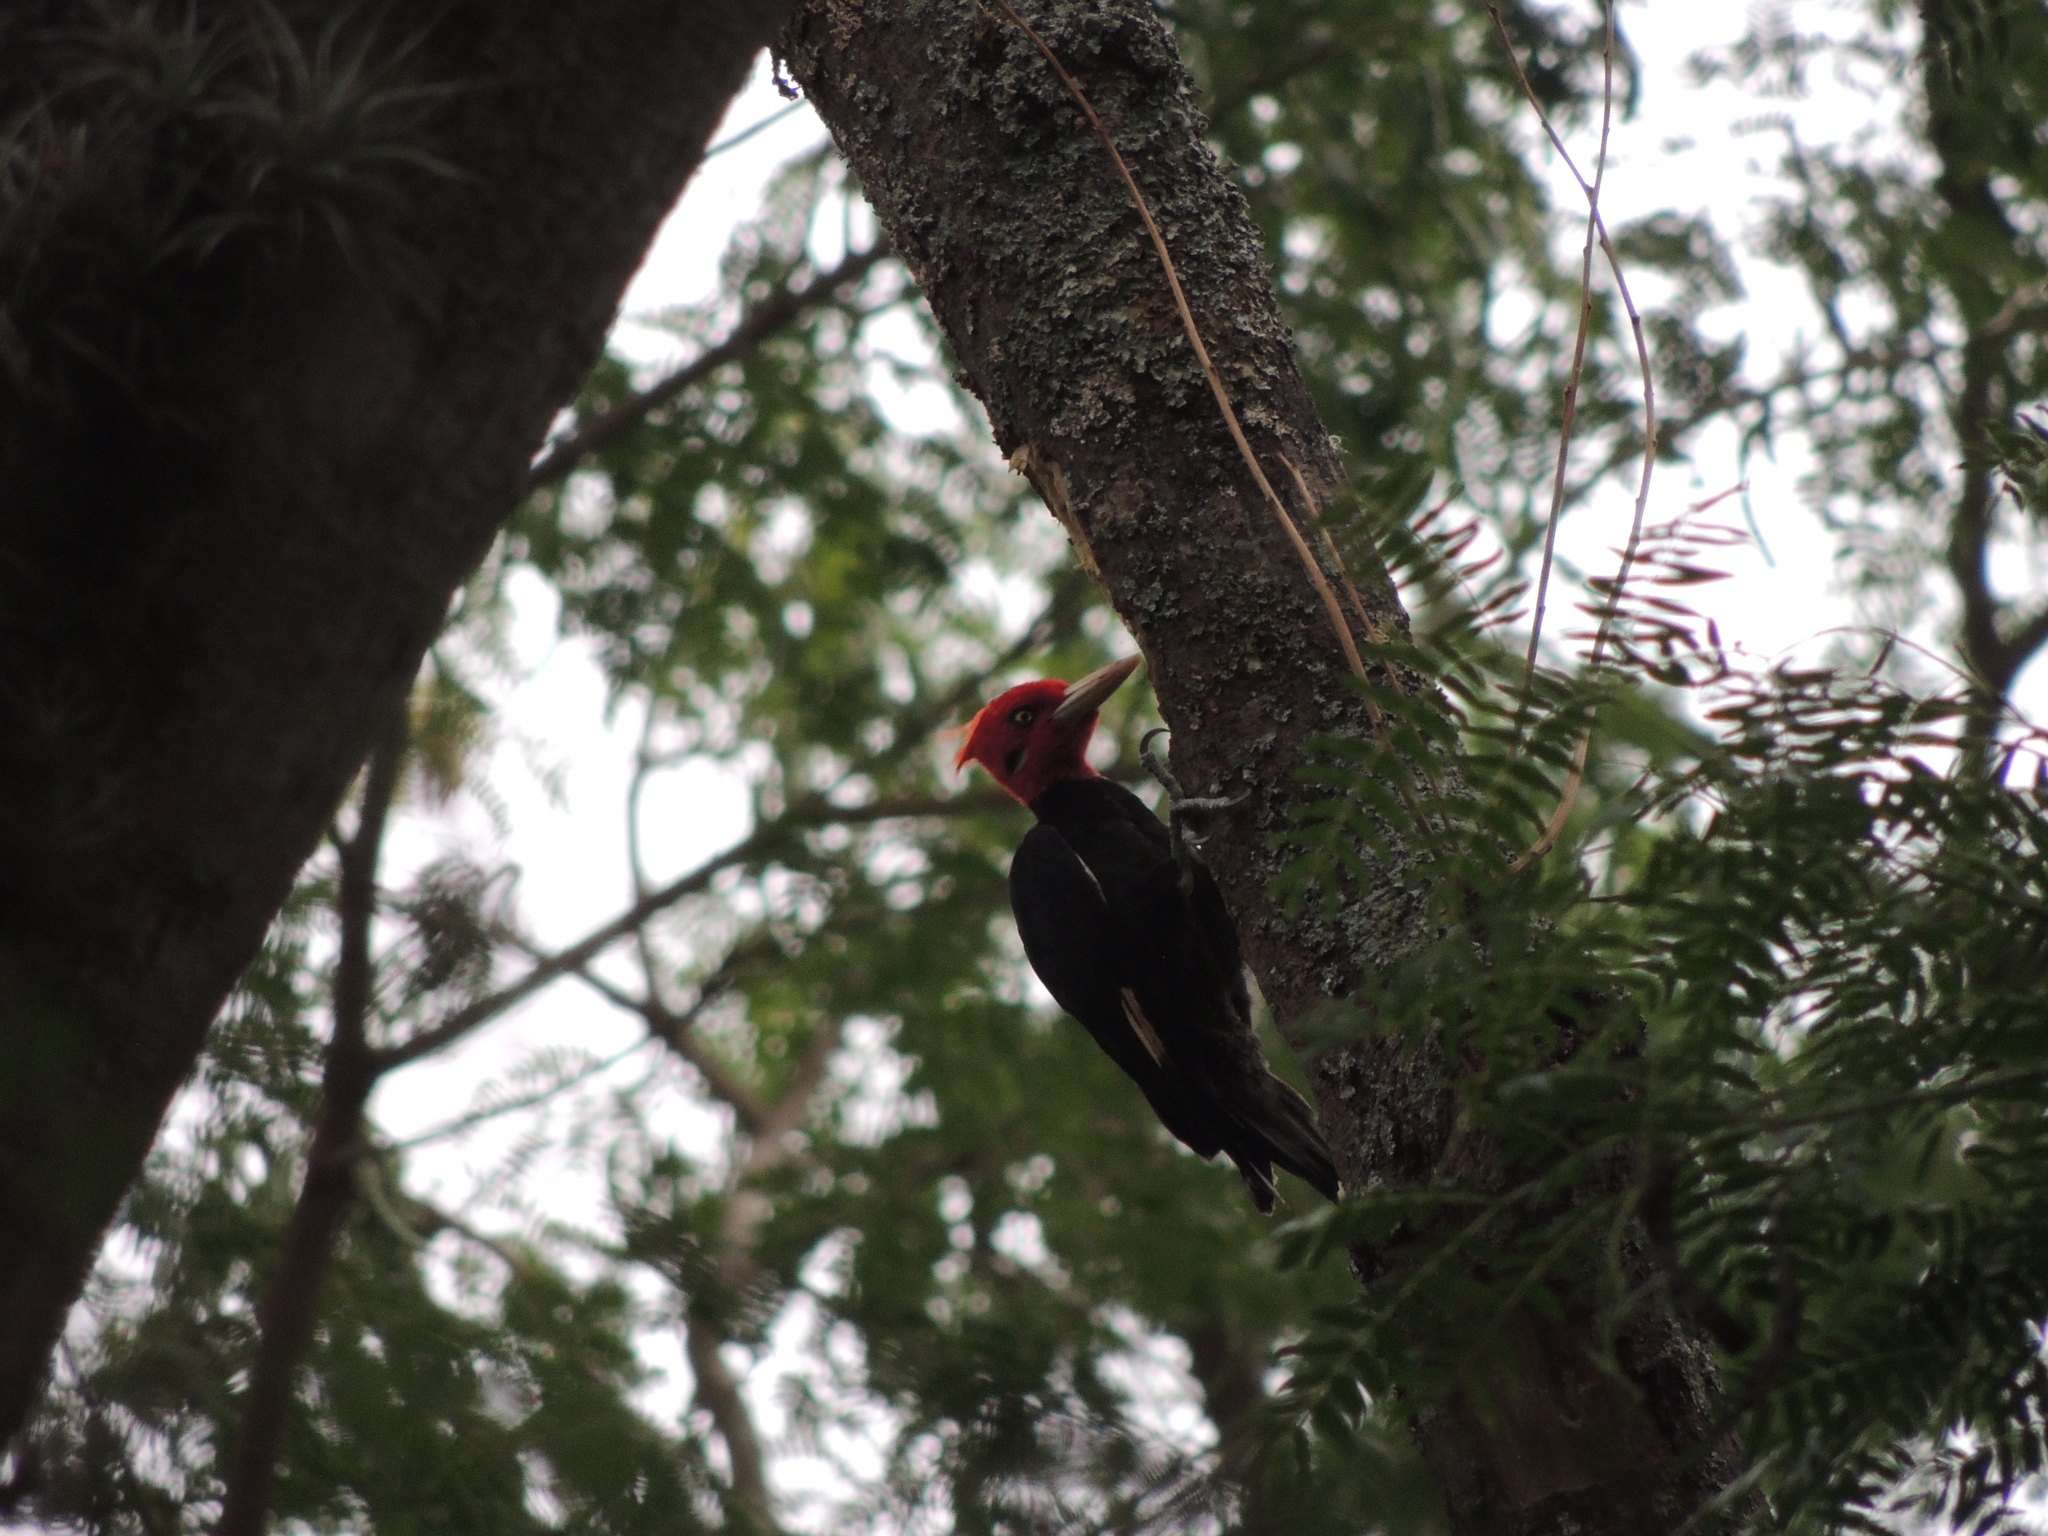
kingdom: Animalia
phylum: Chordata
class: Aves
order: Piciformes
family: Picidae
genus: Campephilus
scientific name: Campephilus leucopogon
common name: Cream-backed woodpecker
